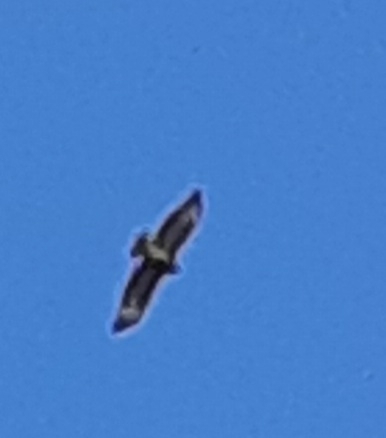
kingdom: Animalia
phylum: Chordata
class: Aves
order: Accipitriformes
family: Accipitridae
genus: Buteo
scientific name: Buteo buteo
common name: Common buzzard
